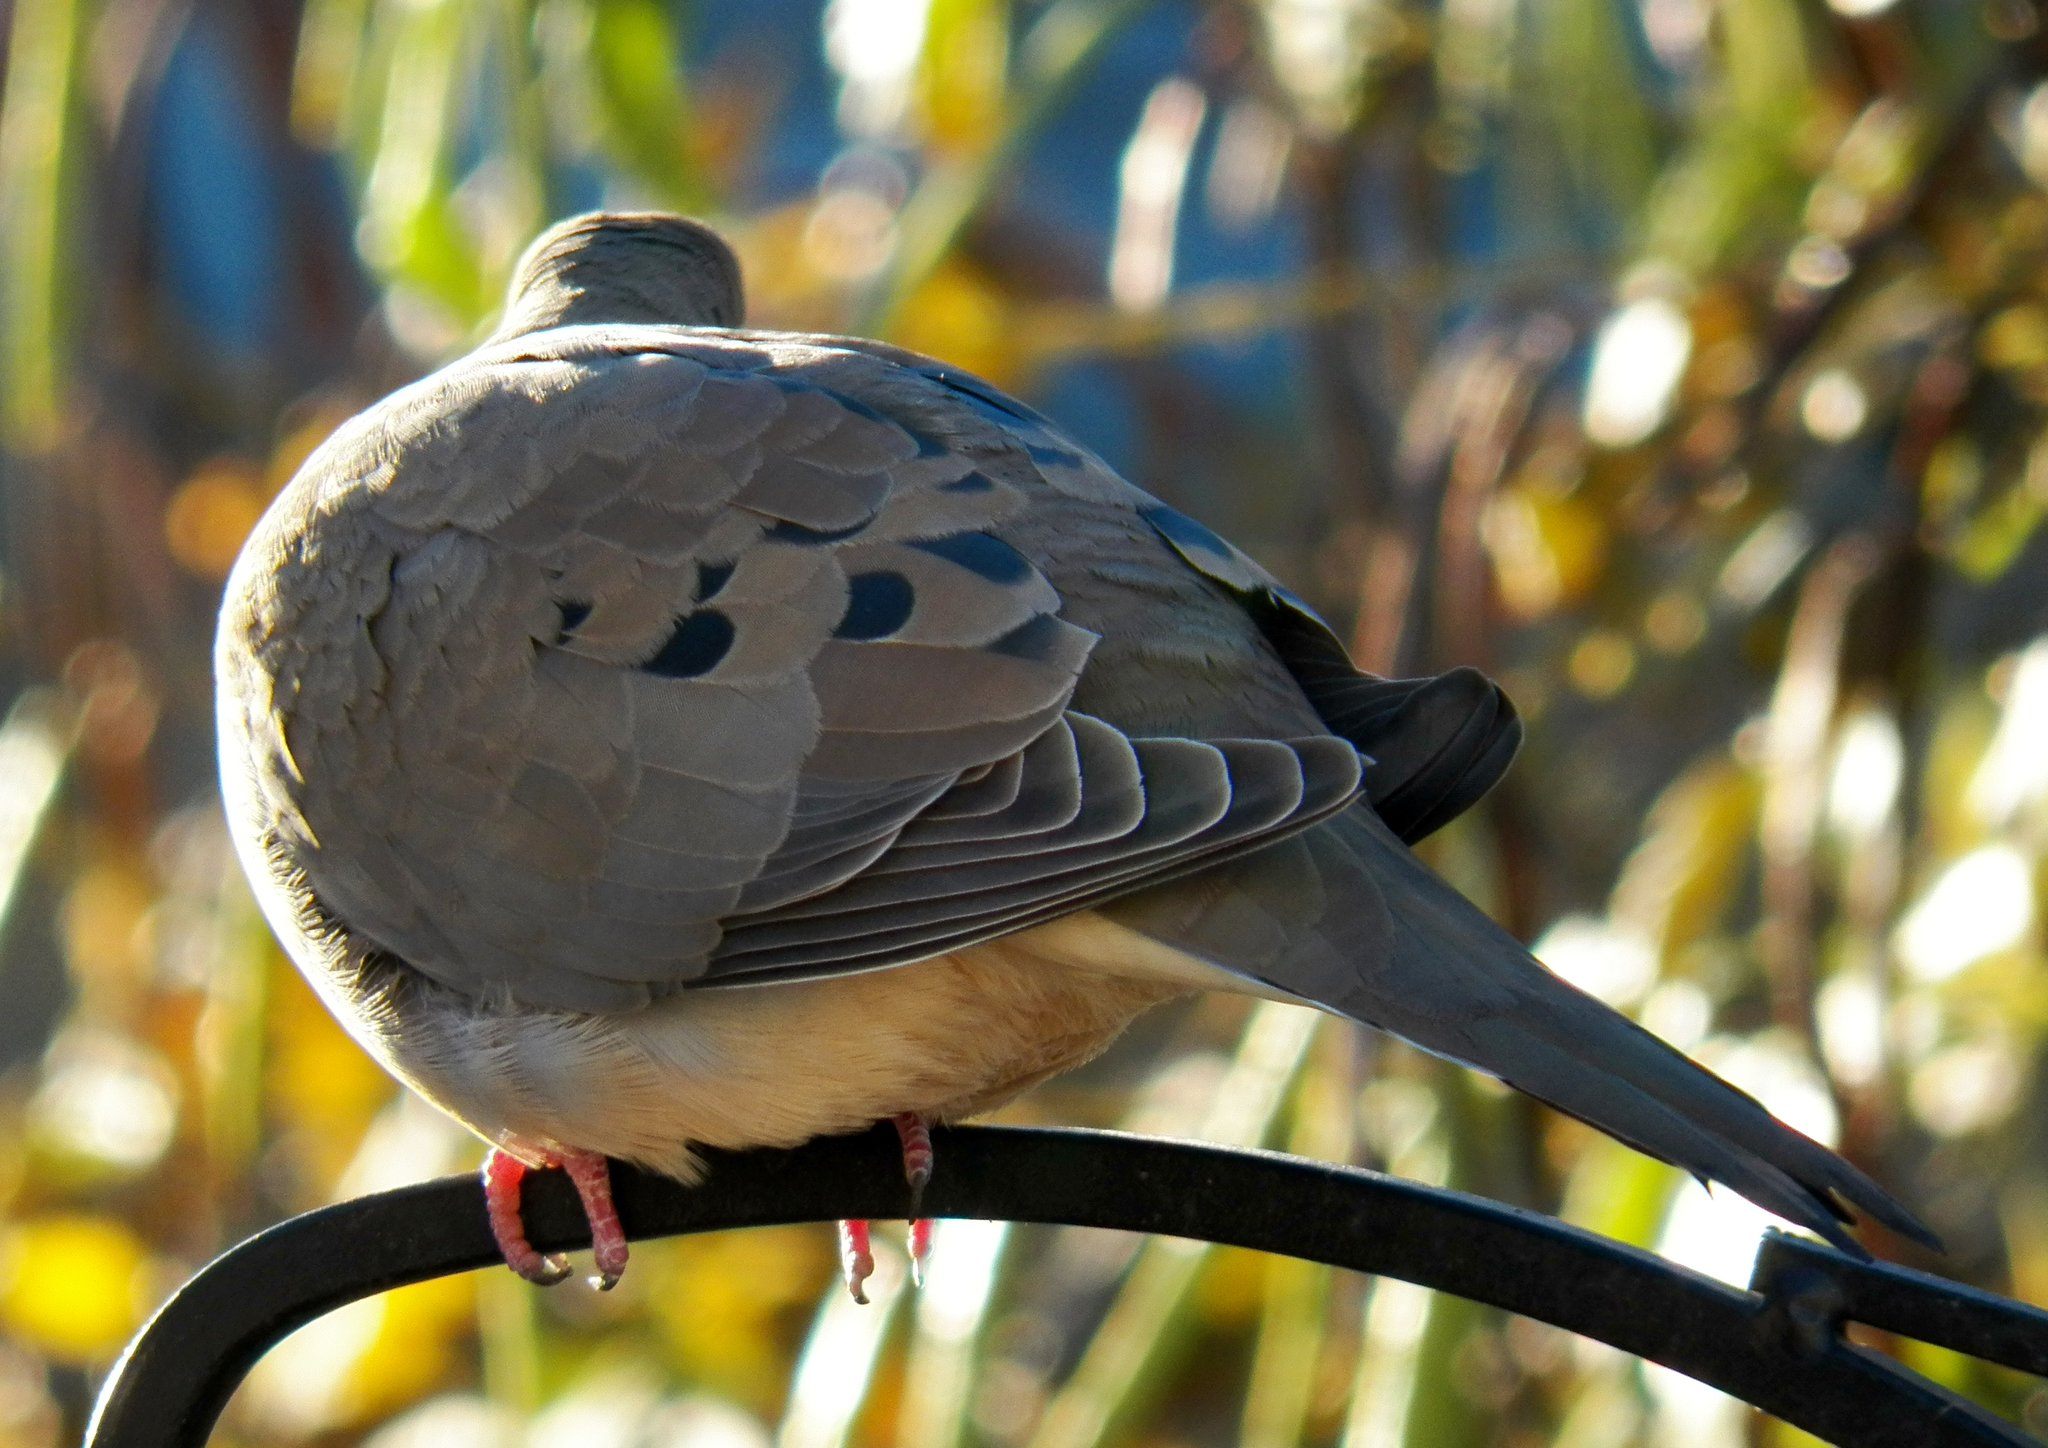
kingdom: Animalia
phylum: Chordata
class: Aves
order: Columbiformes
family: Columbidae
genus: Zenaida
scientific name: Zenaida macroura
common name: Mourning dove
